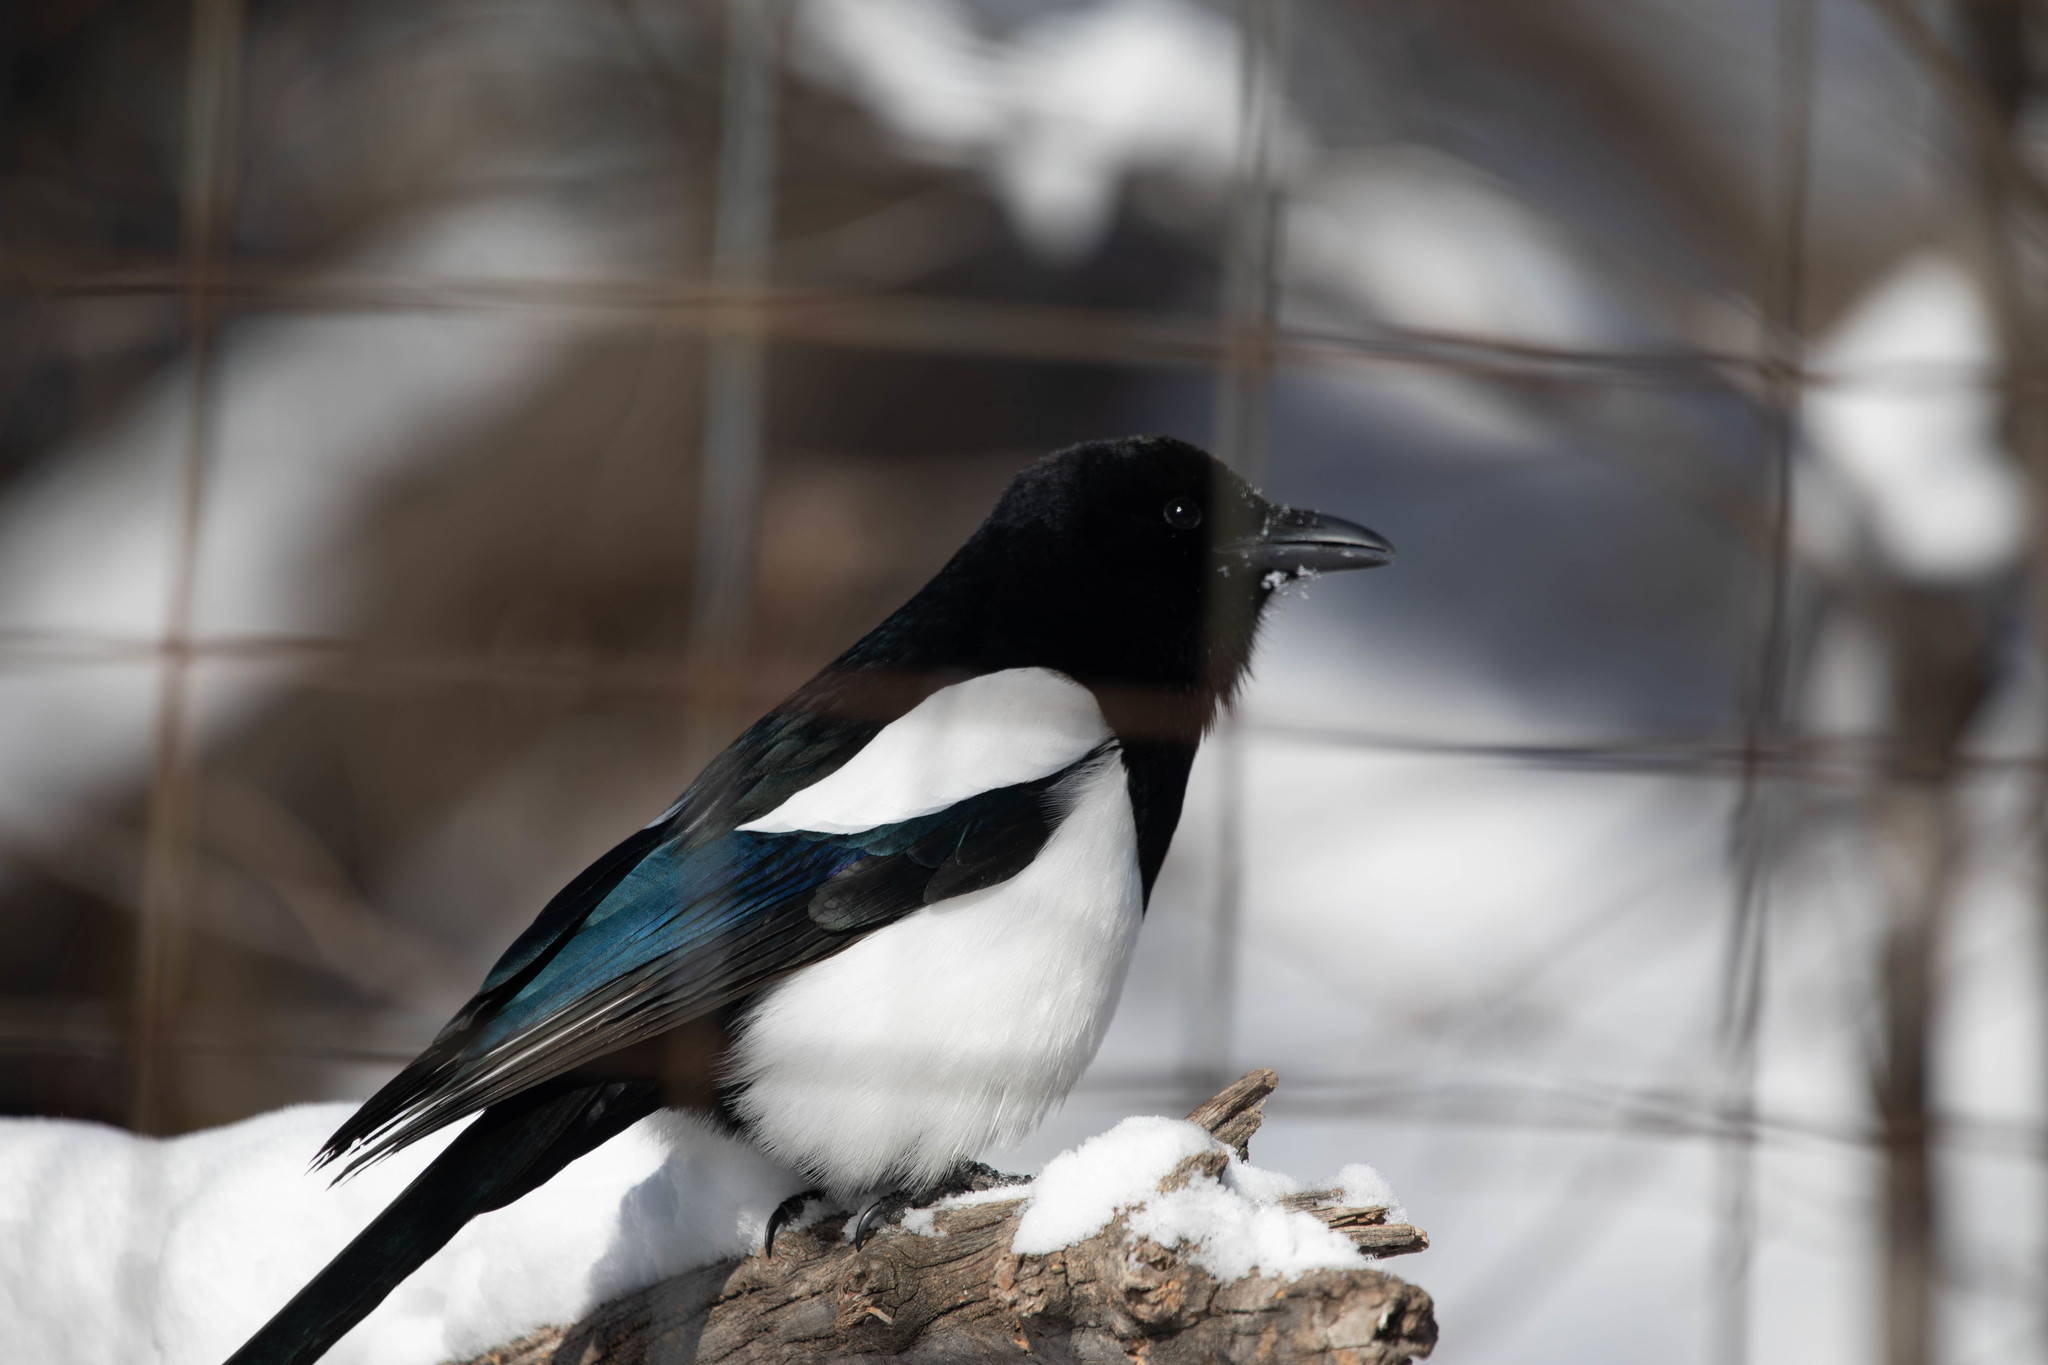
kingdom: Animalia
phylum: Chordata
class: Aves
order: Passeriformes
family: Corvidae
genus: Pica
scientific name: Pica hudsonia
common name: Black-billed magpie
